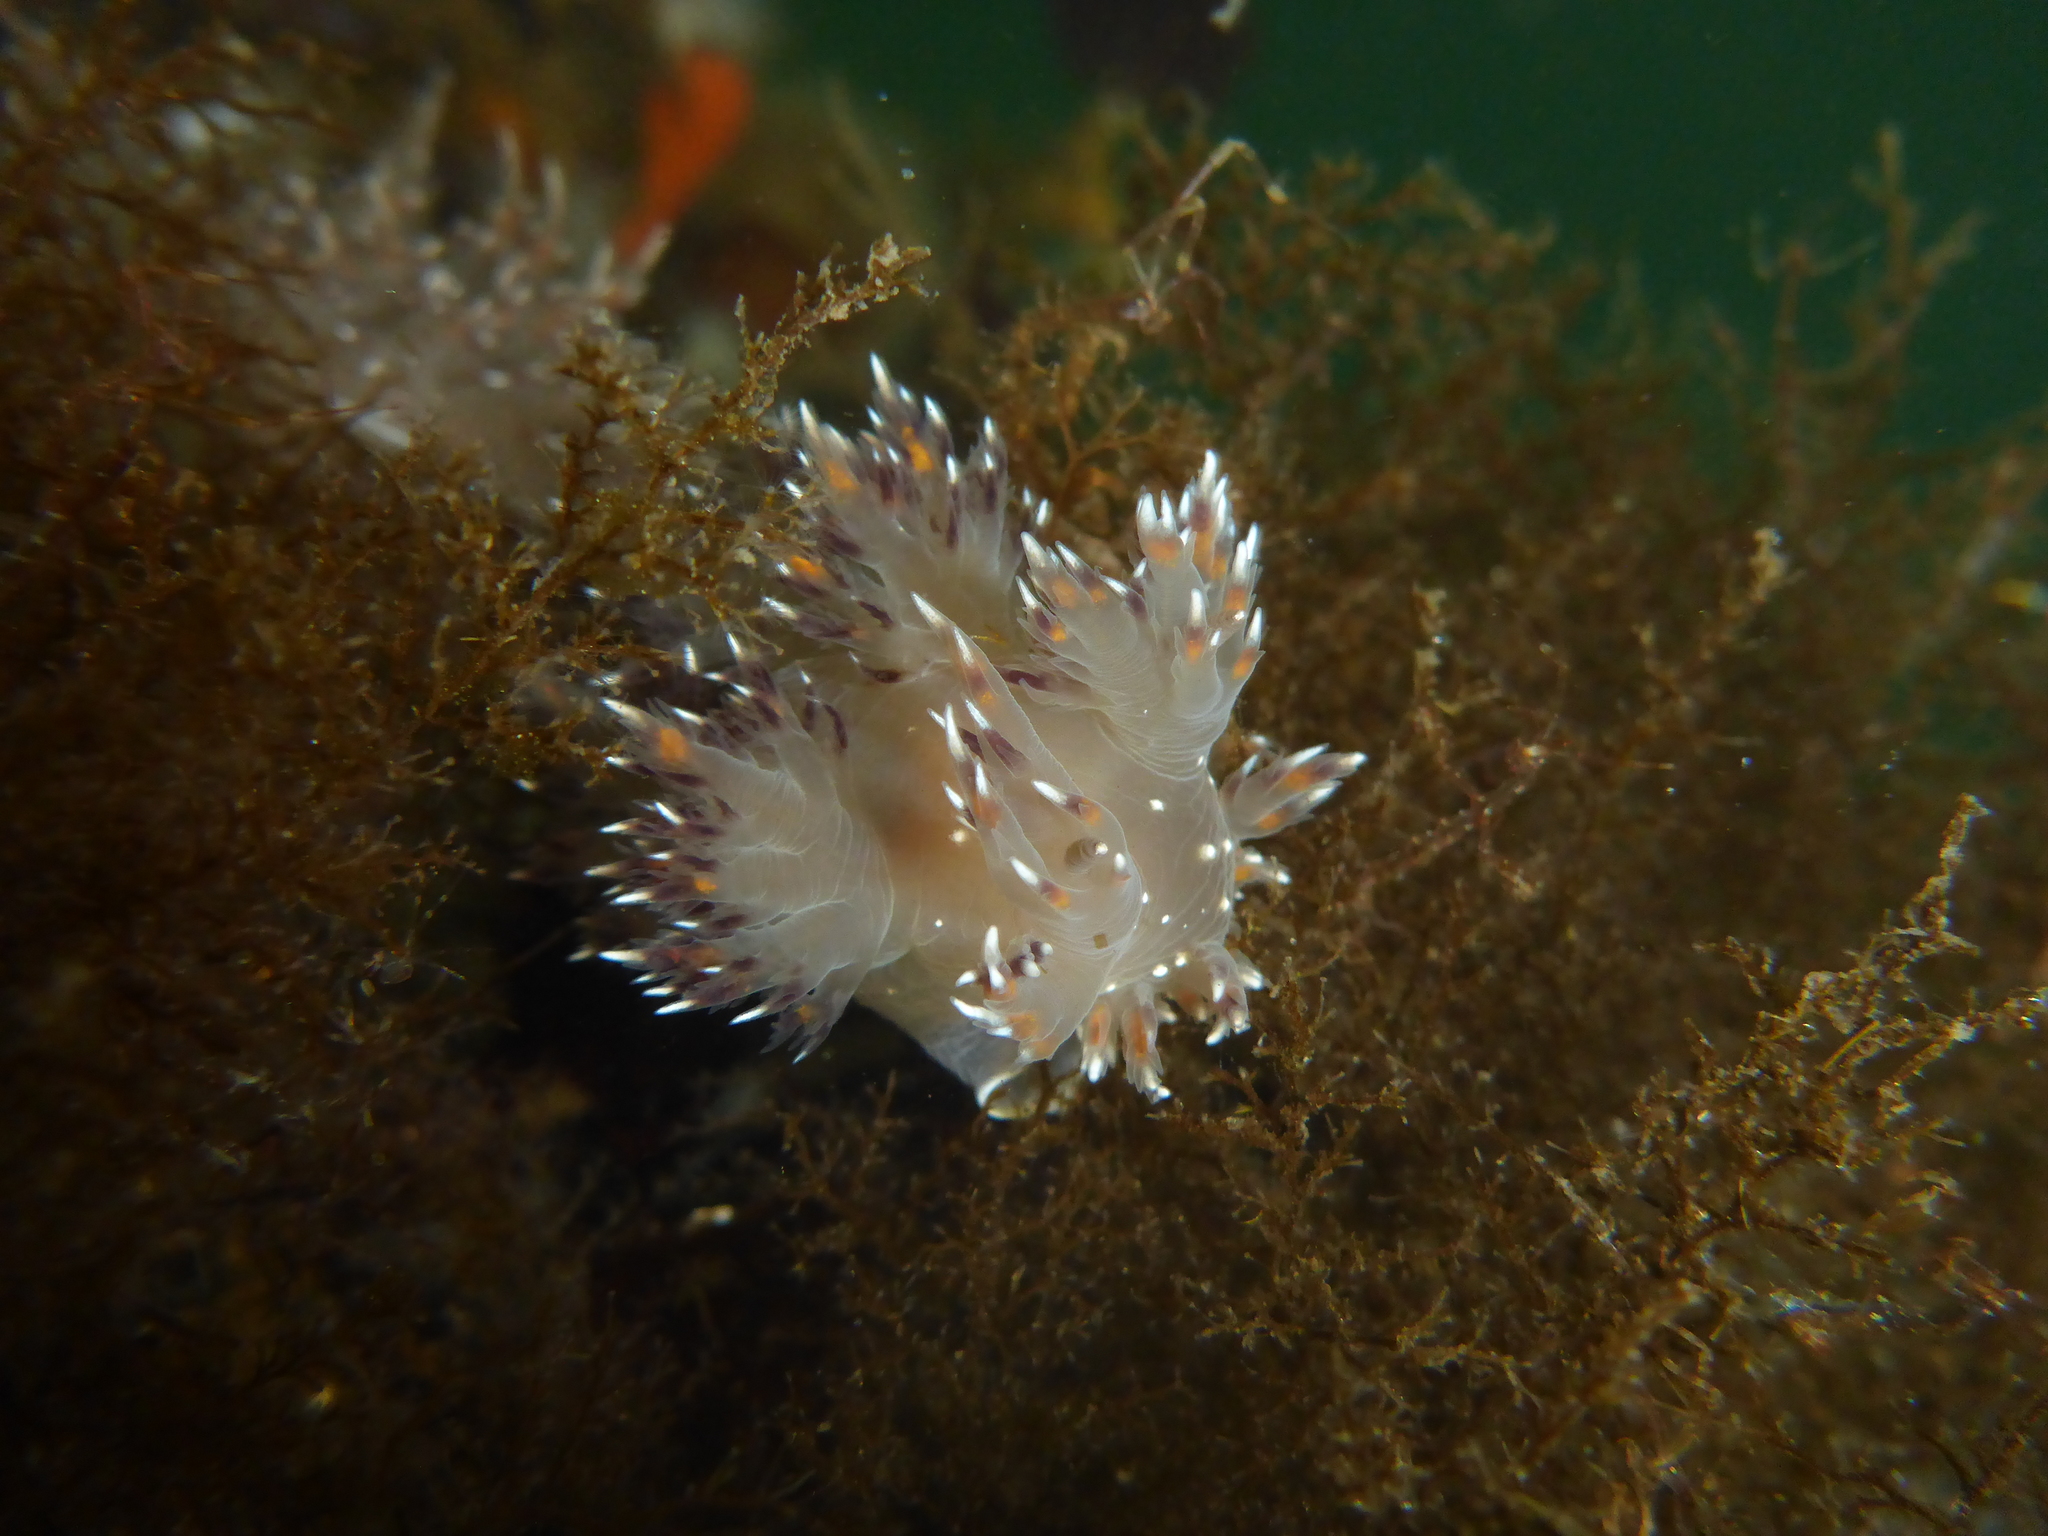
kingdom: Animalia
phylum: Mollusca
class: Gastropoda
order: Nudibranchia
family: Dendronotidae
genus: Dendronotus
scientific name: Dendronotus iris
